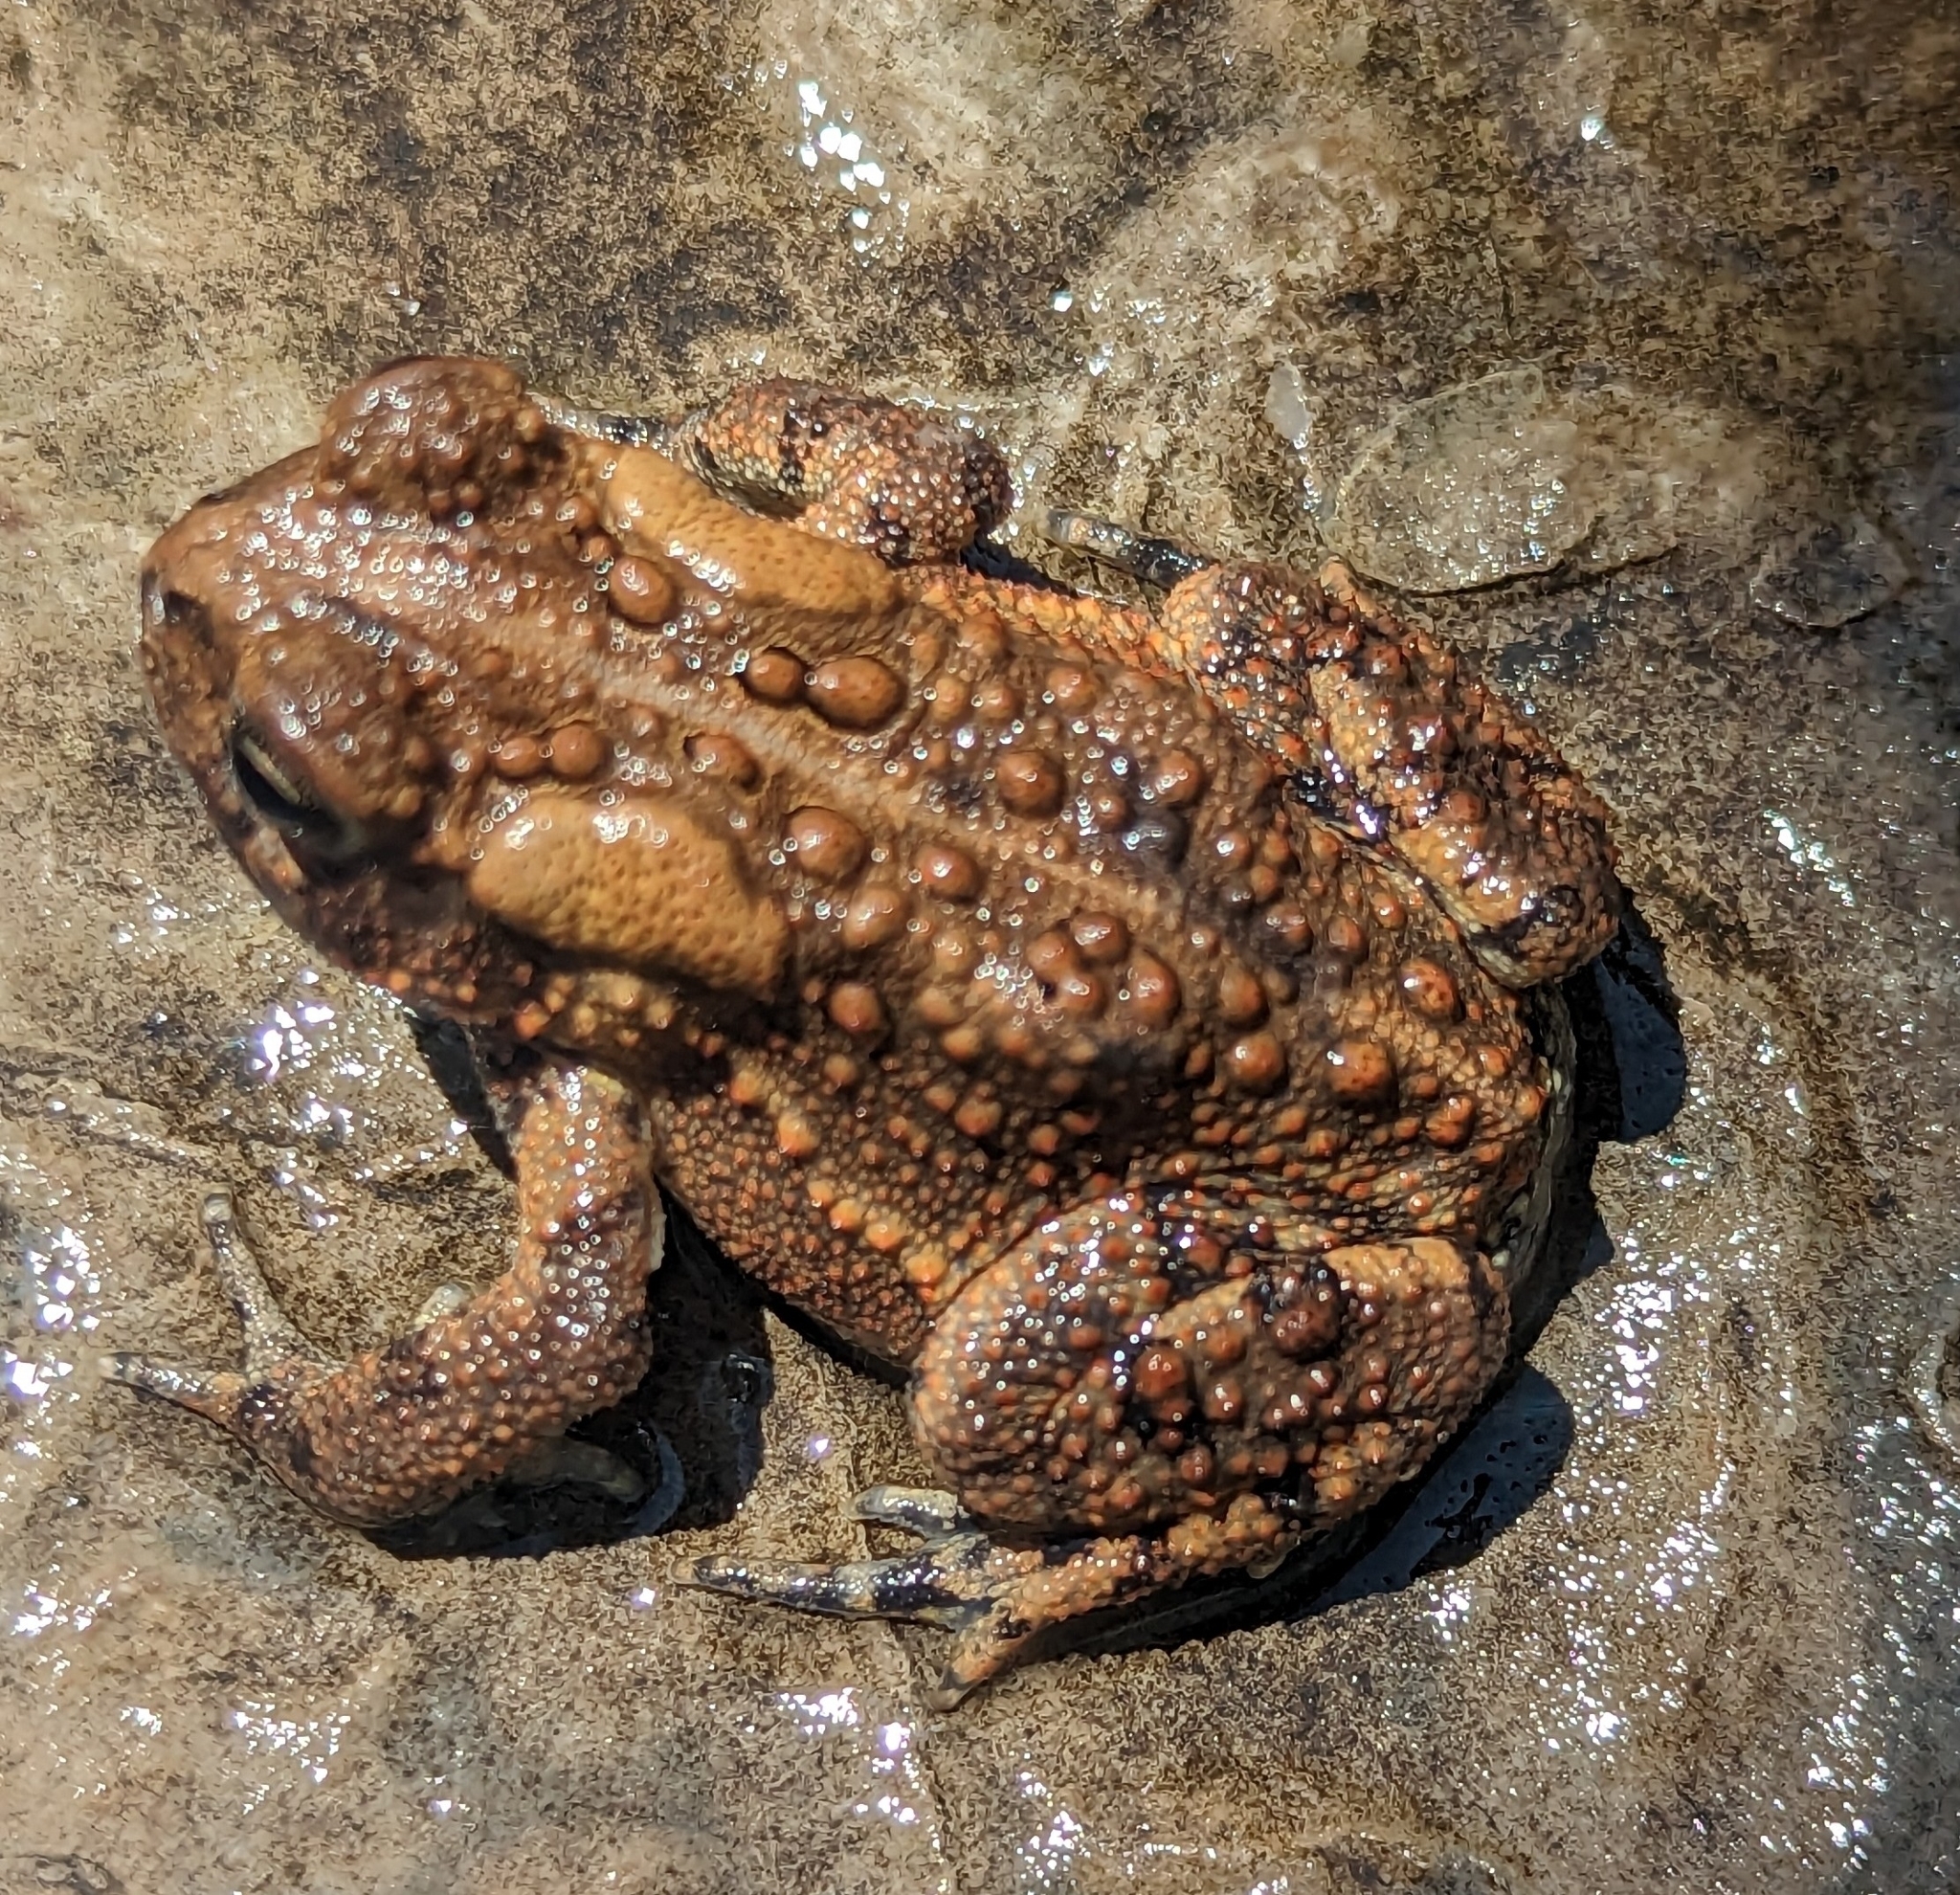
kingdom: Animalia
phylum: Chordata
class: Amphibia
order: Anura
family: Bufonidae
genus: Anaxyrus
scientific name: Anaxyrus americanus
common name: American toad
